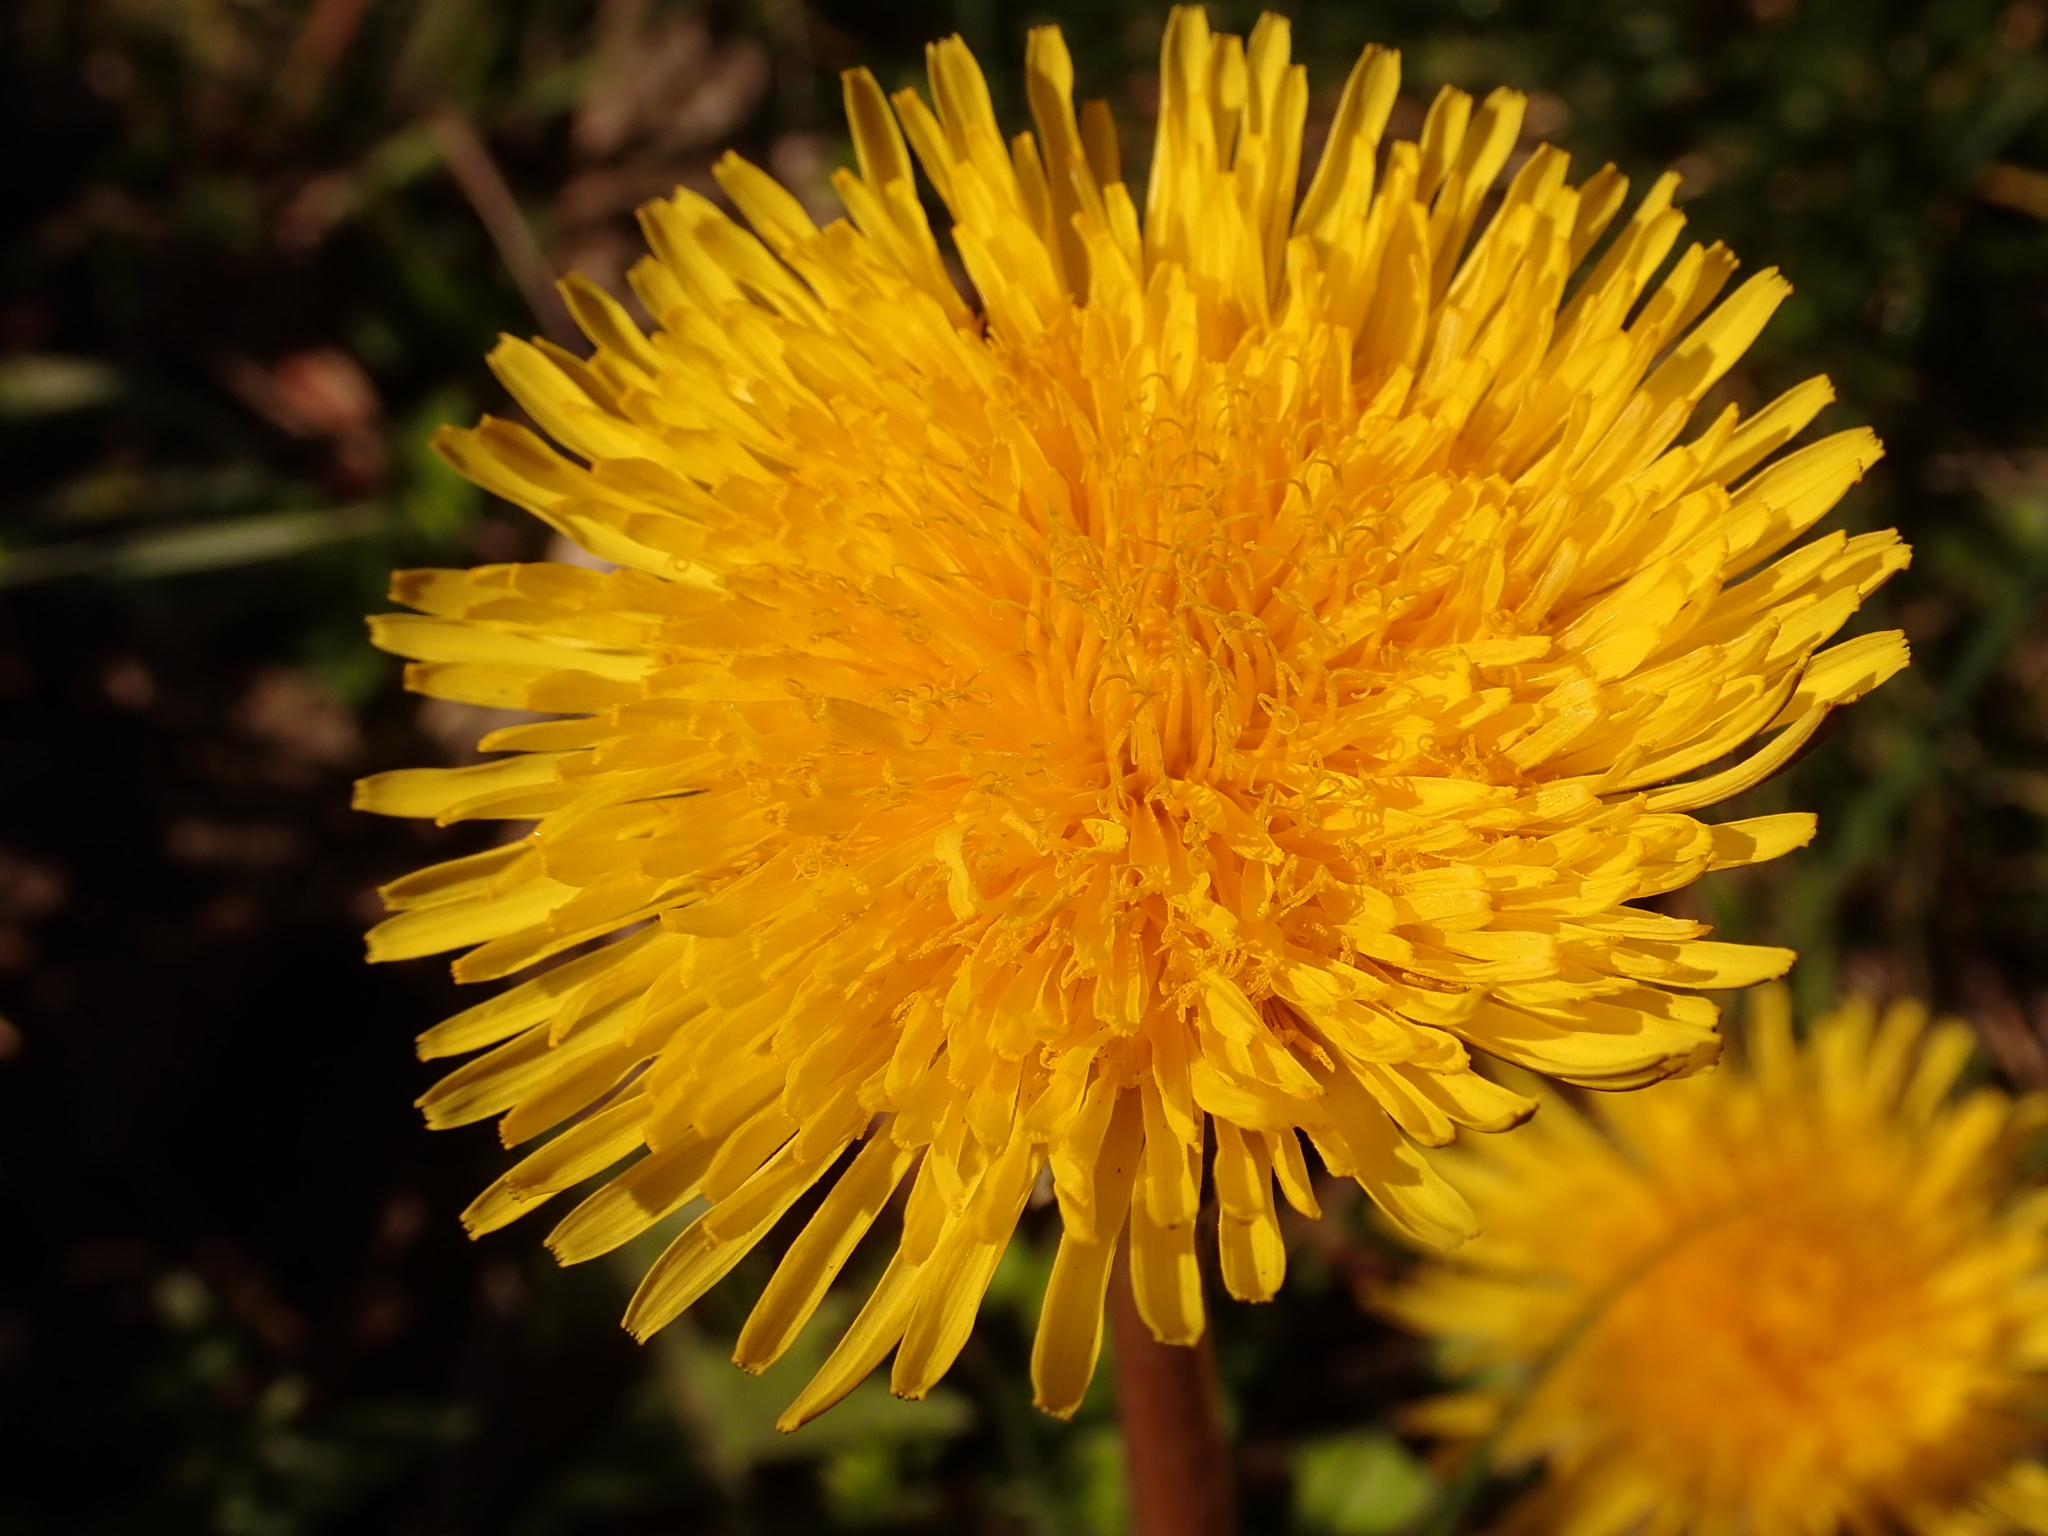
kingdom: Plantae
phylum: Tracheophyta
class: Magnoliopsida
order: Asterales
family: Asteraceae
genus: Taraxacum
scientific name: Taraxacum officinale
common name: Common dandelion
